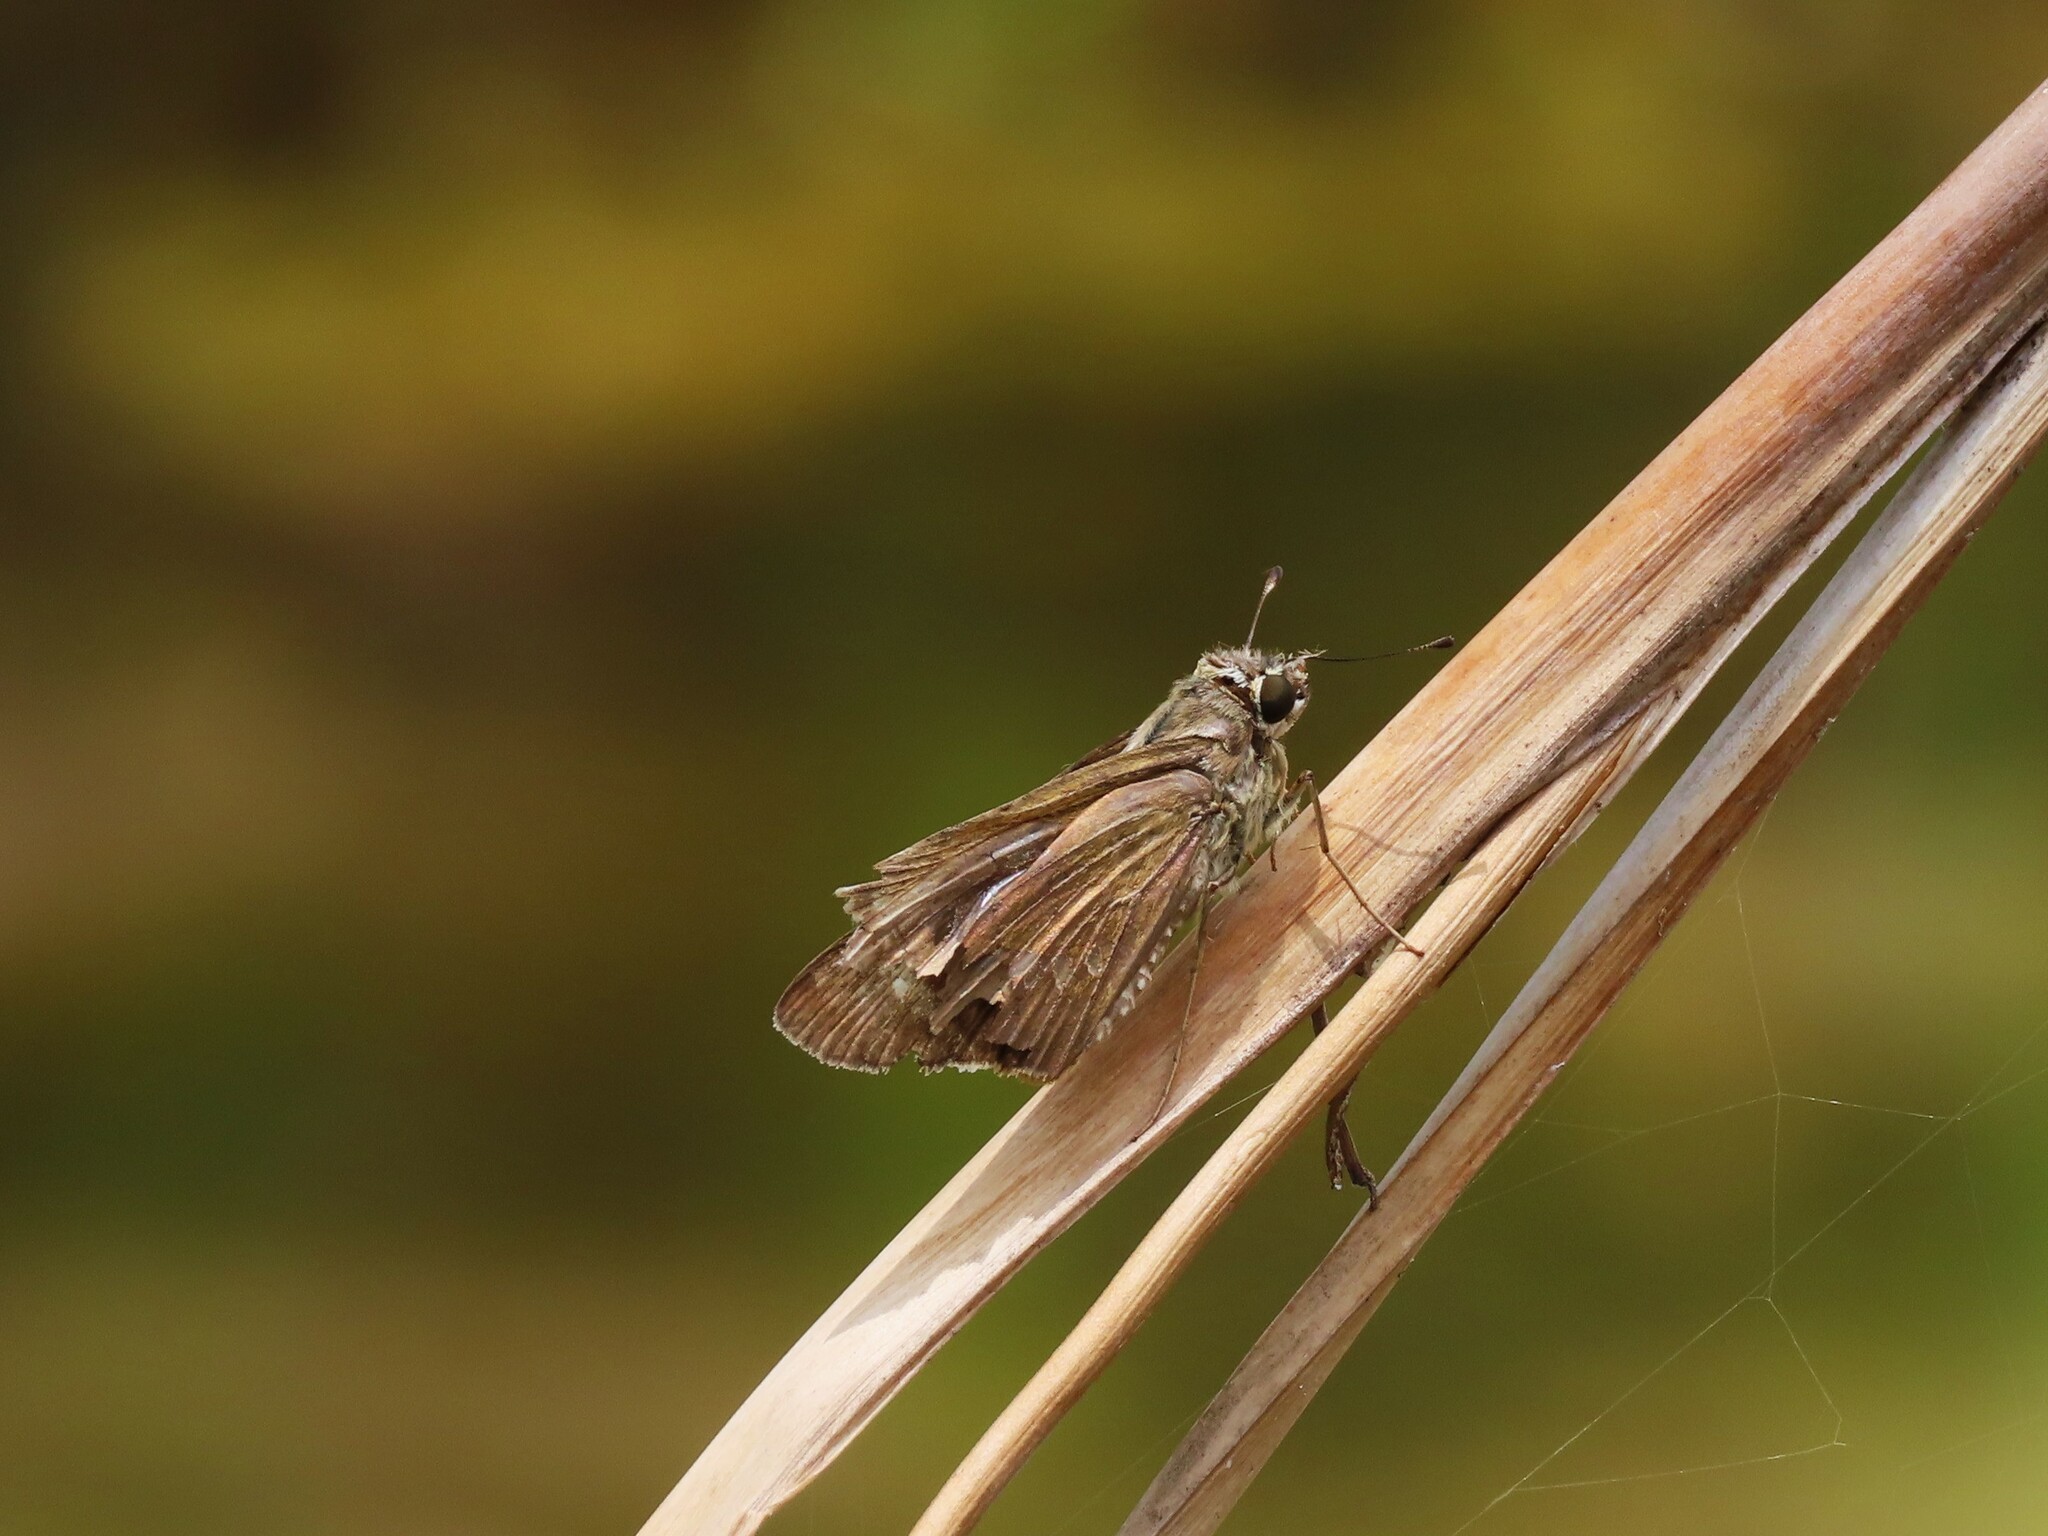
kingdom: Animalia
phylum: Arthropoda
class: Insecta
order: Lepidoptera
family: Hesperiidae
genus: Calpodes
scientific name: Calpodes ethlius
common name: Brazilian skipper
